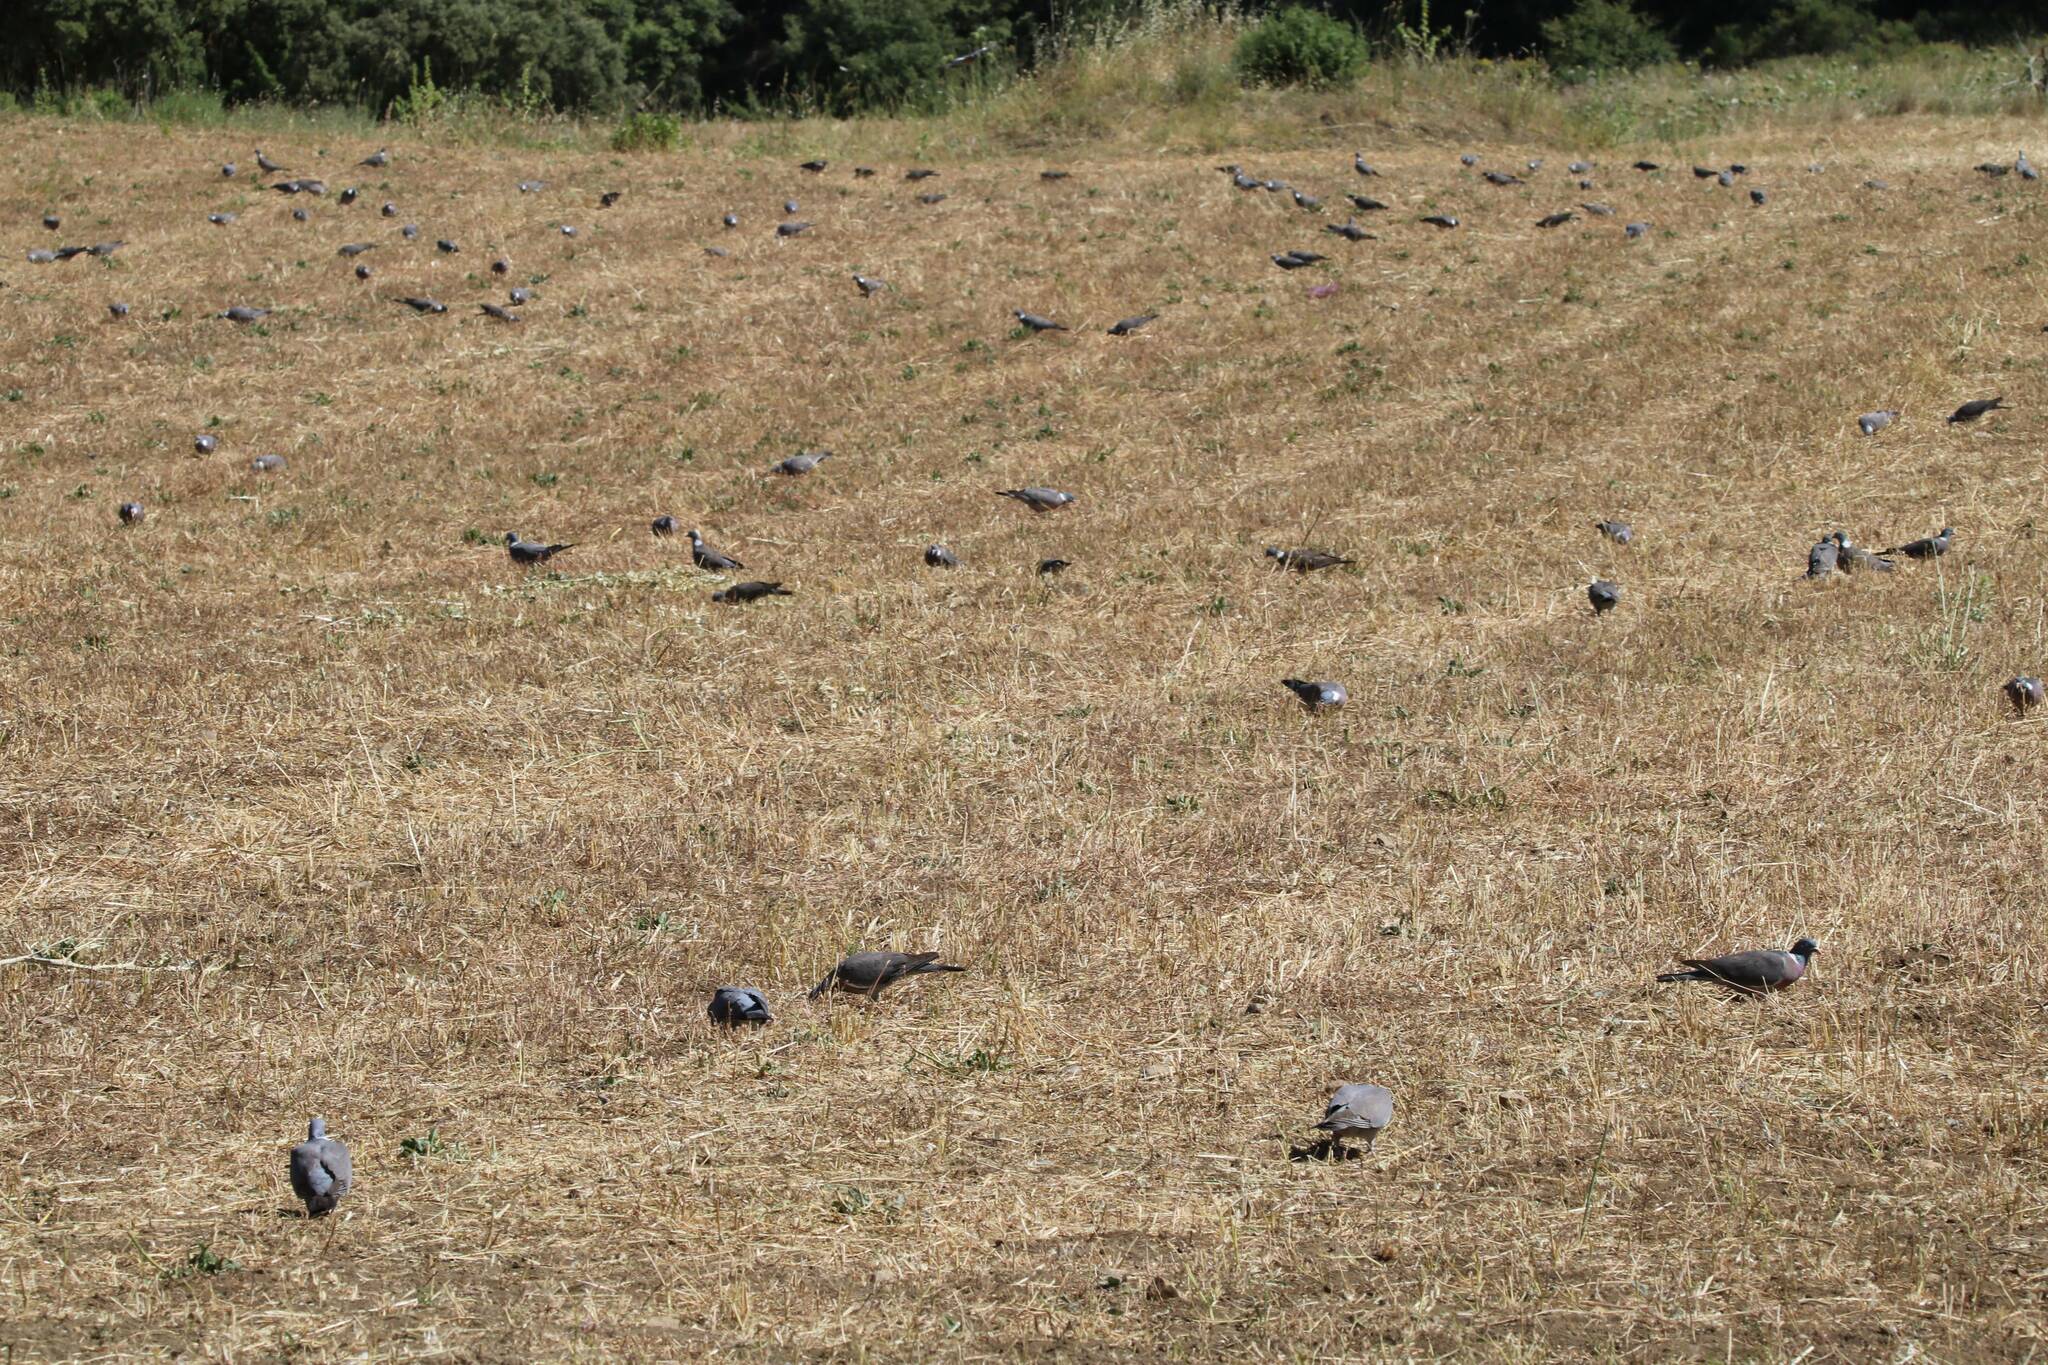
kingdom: Animalia
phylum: Chordata
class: Aves
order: Columbiformes
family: Columbidae
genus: Columba
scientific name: Columba palumbus
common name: Common wood pigeon
